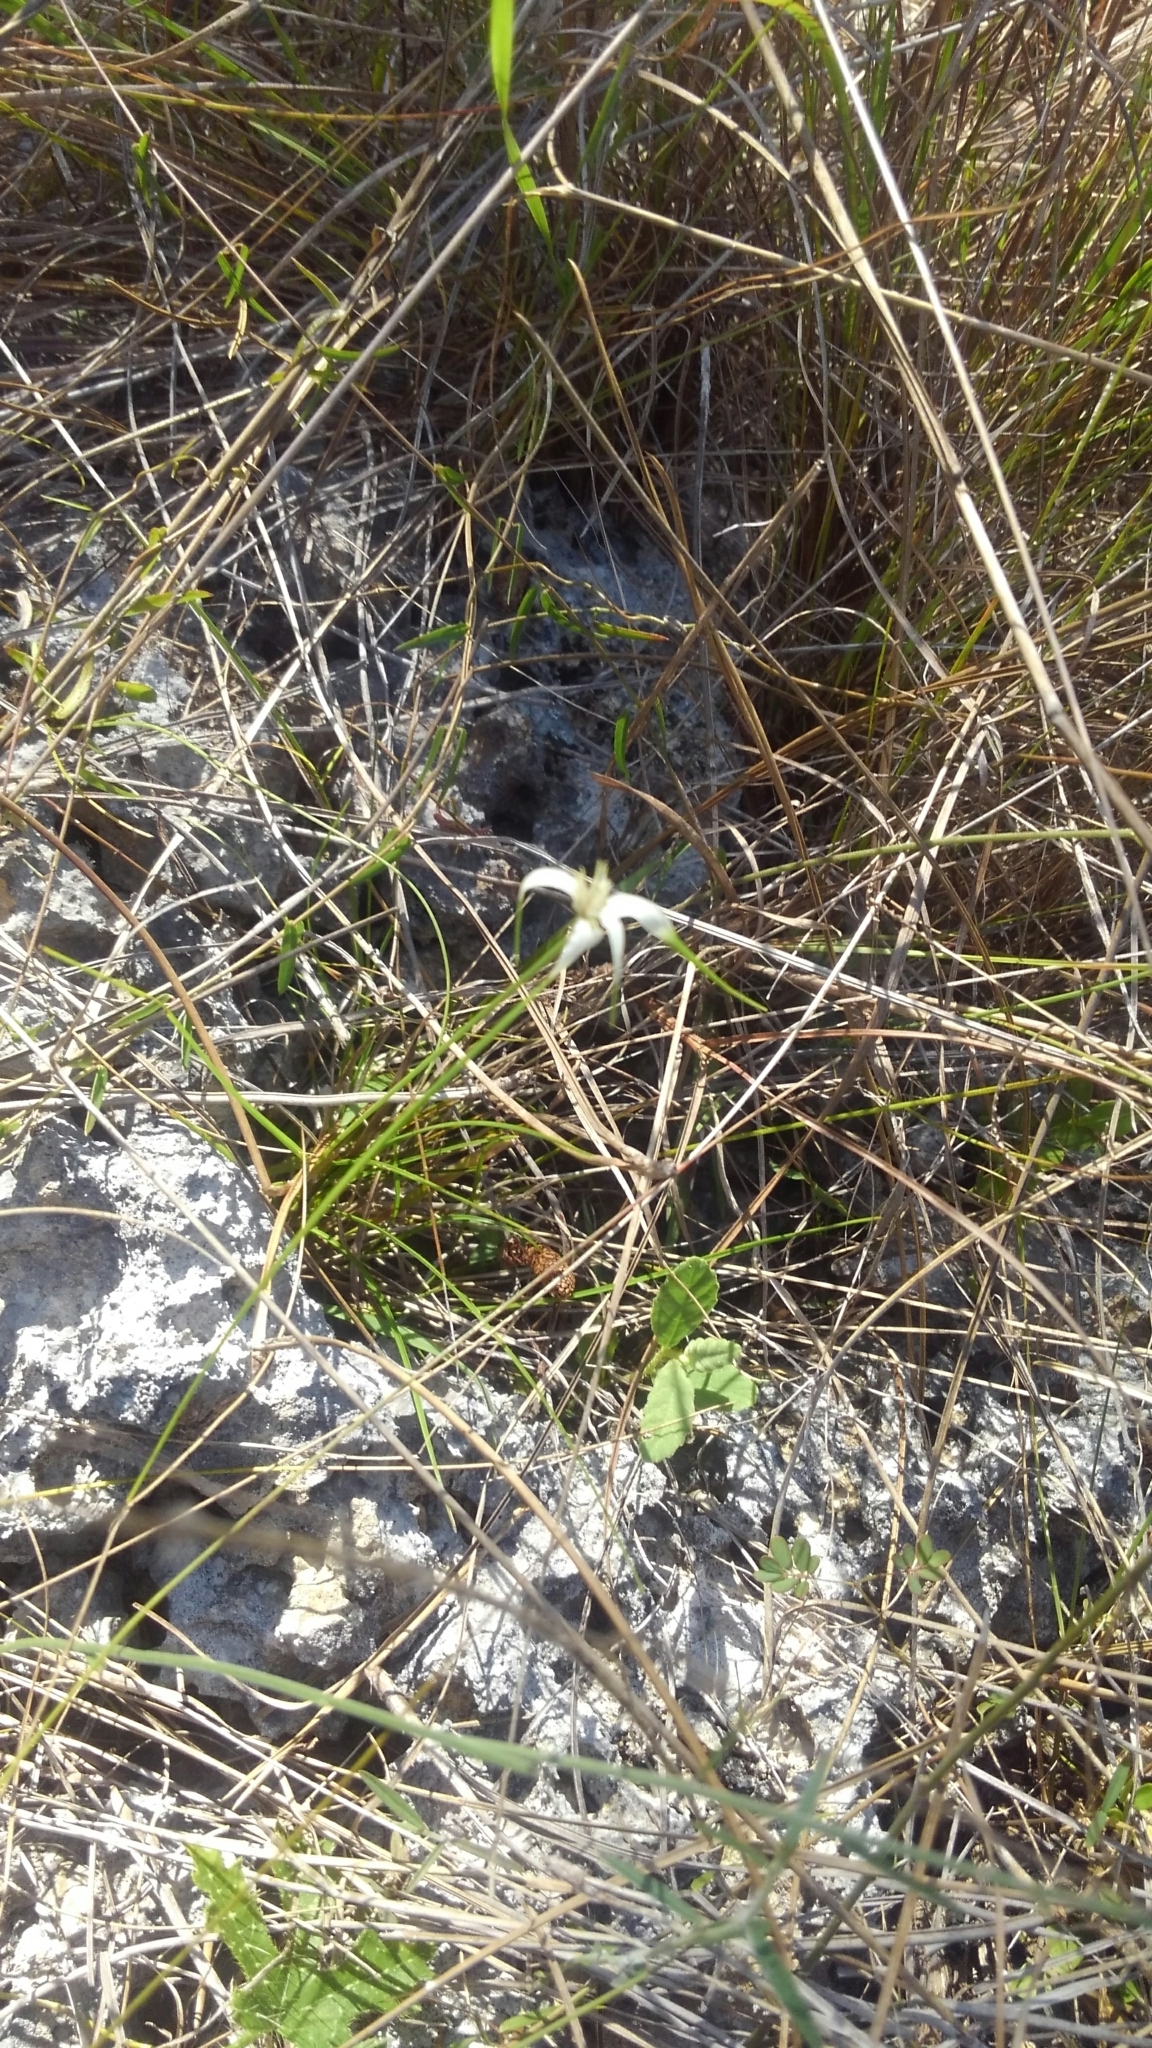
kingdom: Plantae
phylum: Tracheophyta
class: Liliopsida
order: Poales
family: Cyperaceae
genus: Rhynchospora
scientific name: Rhynchospora colorata
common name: Star sedge
